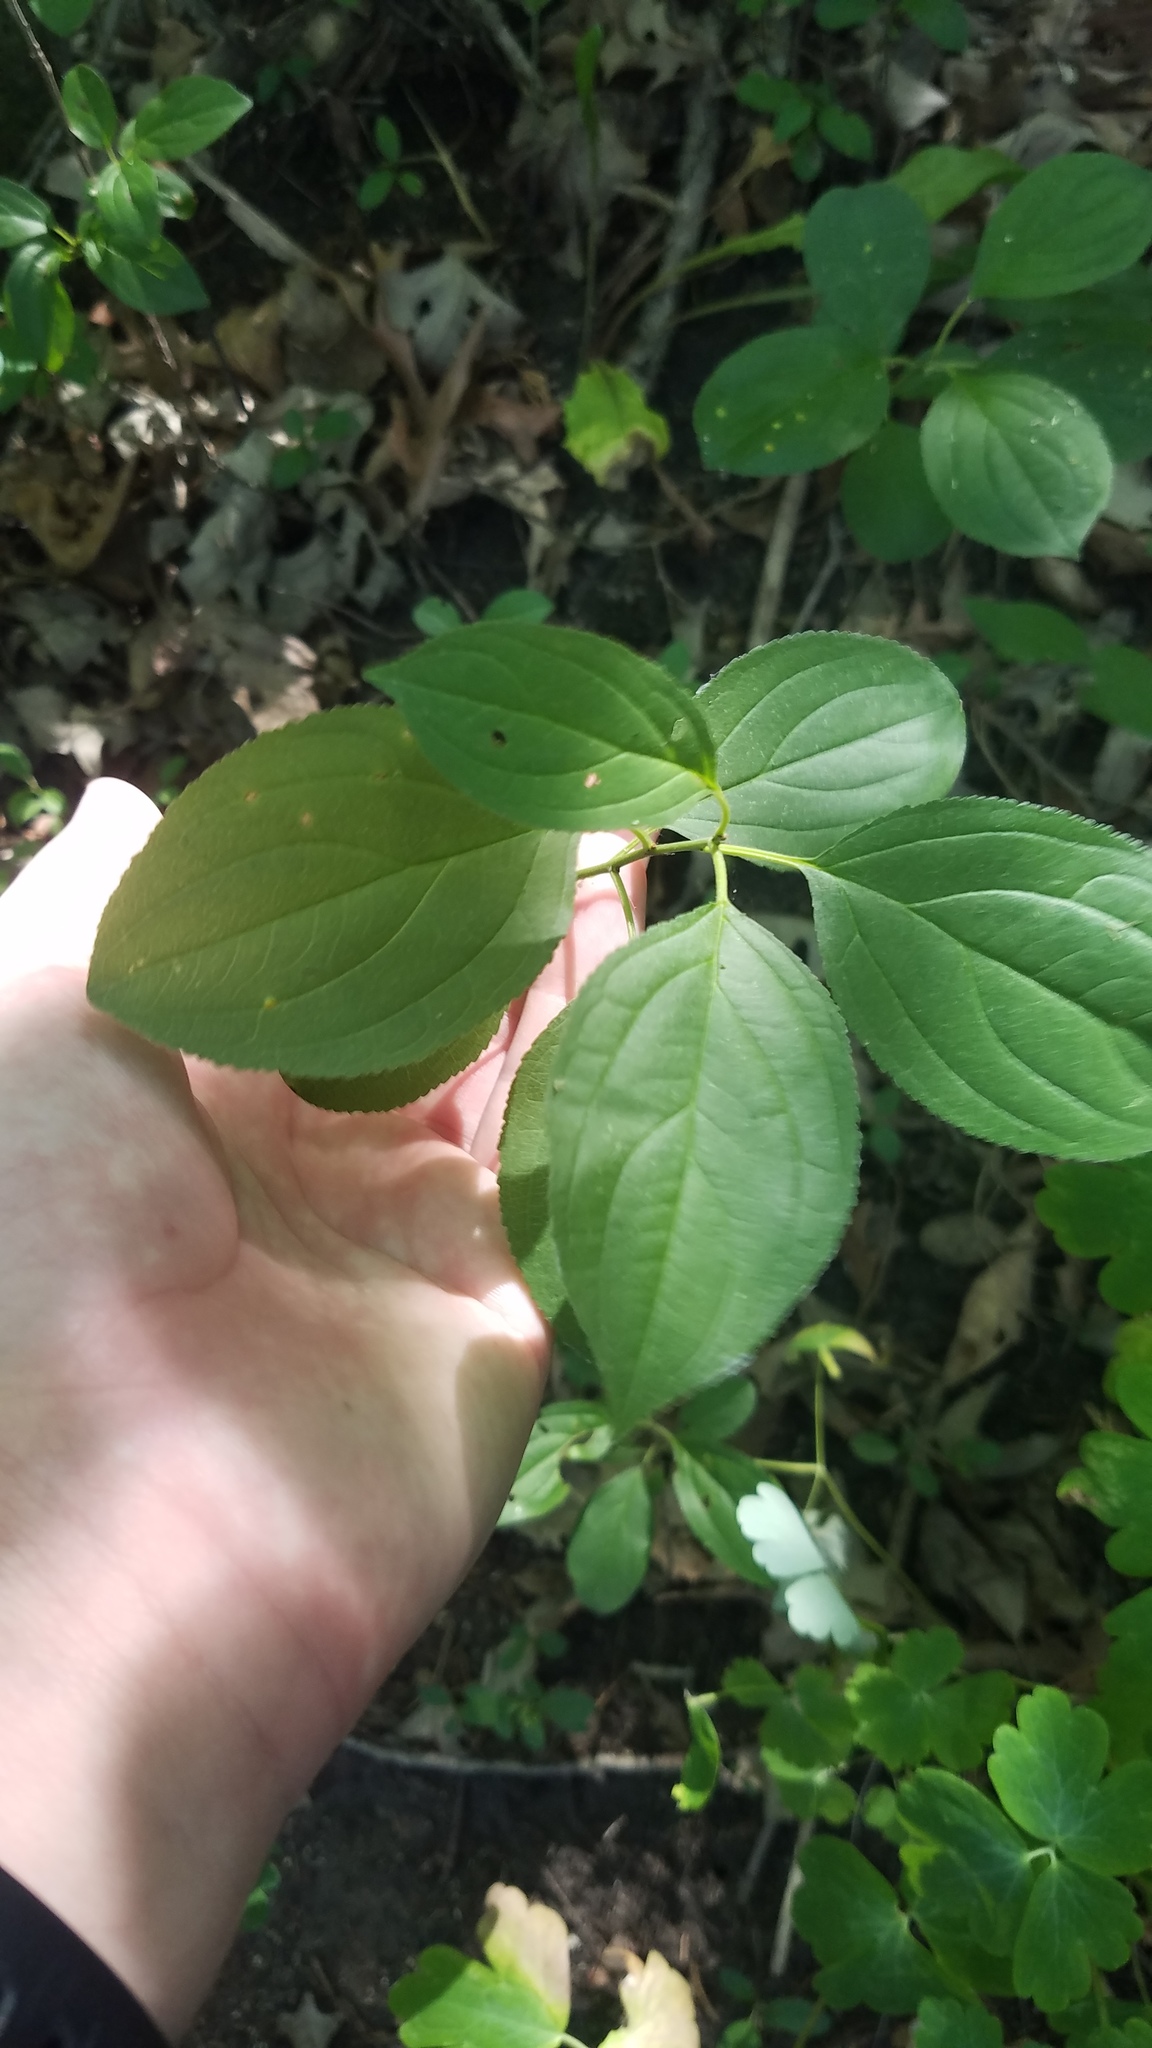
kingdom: Plantae
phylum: Tracheophyta
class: Magnoliopsida
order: Rosales
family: Rhamnaceae
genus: Rhamnus
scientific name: Rhamnus cathartica
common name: Common buckthorn
